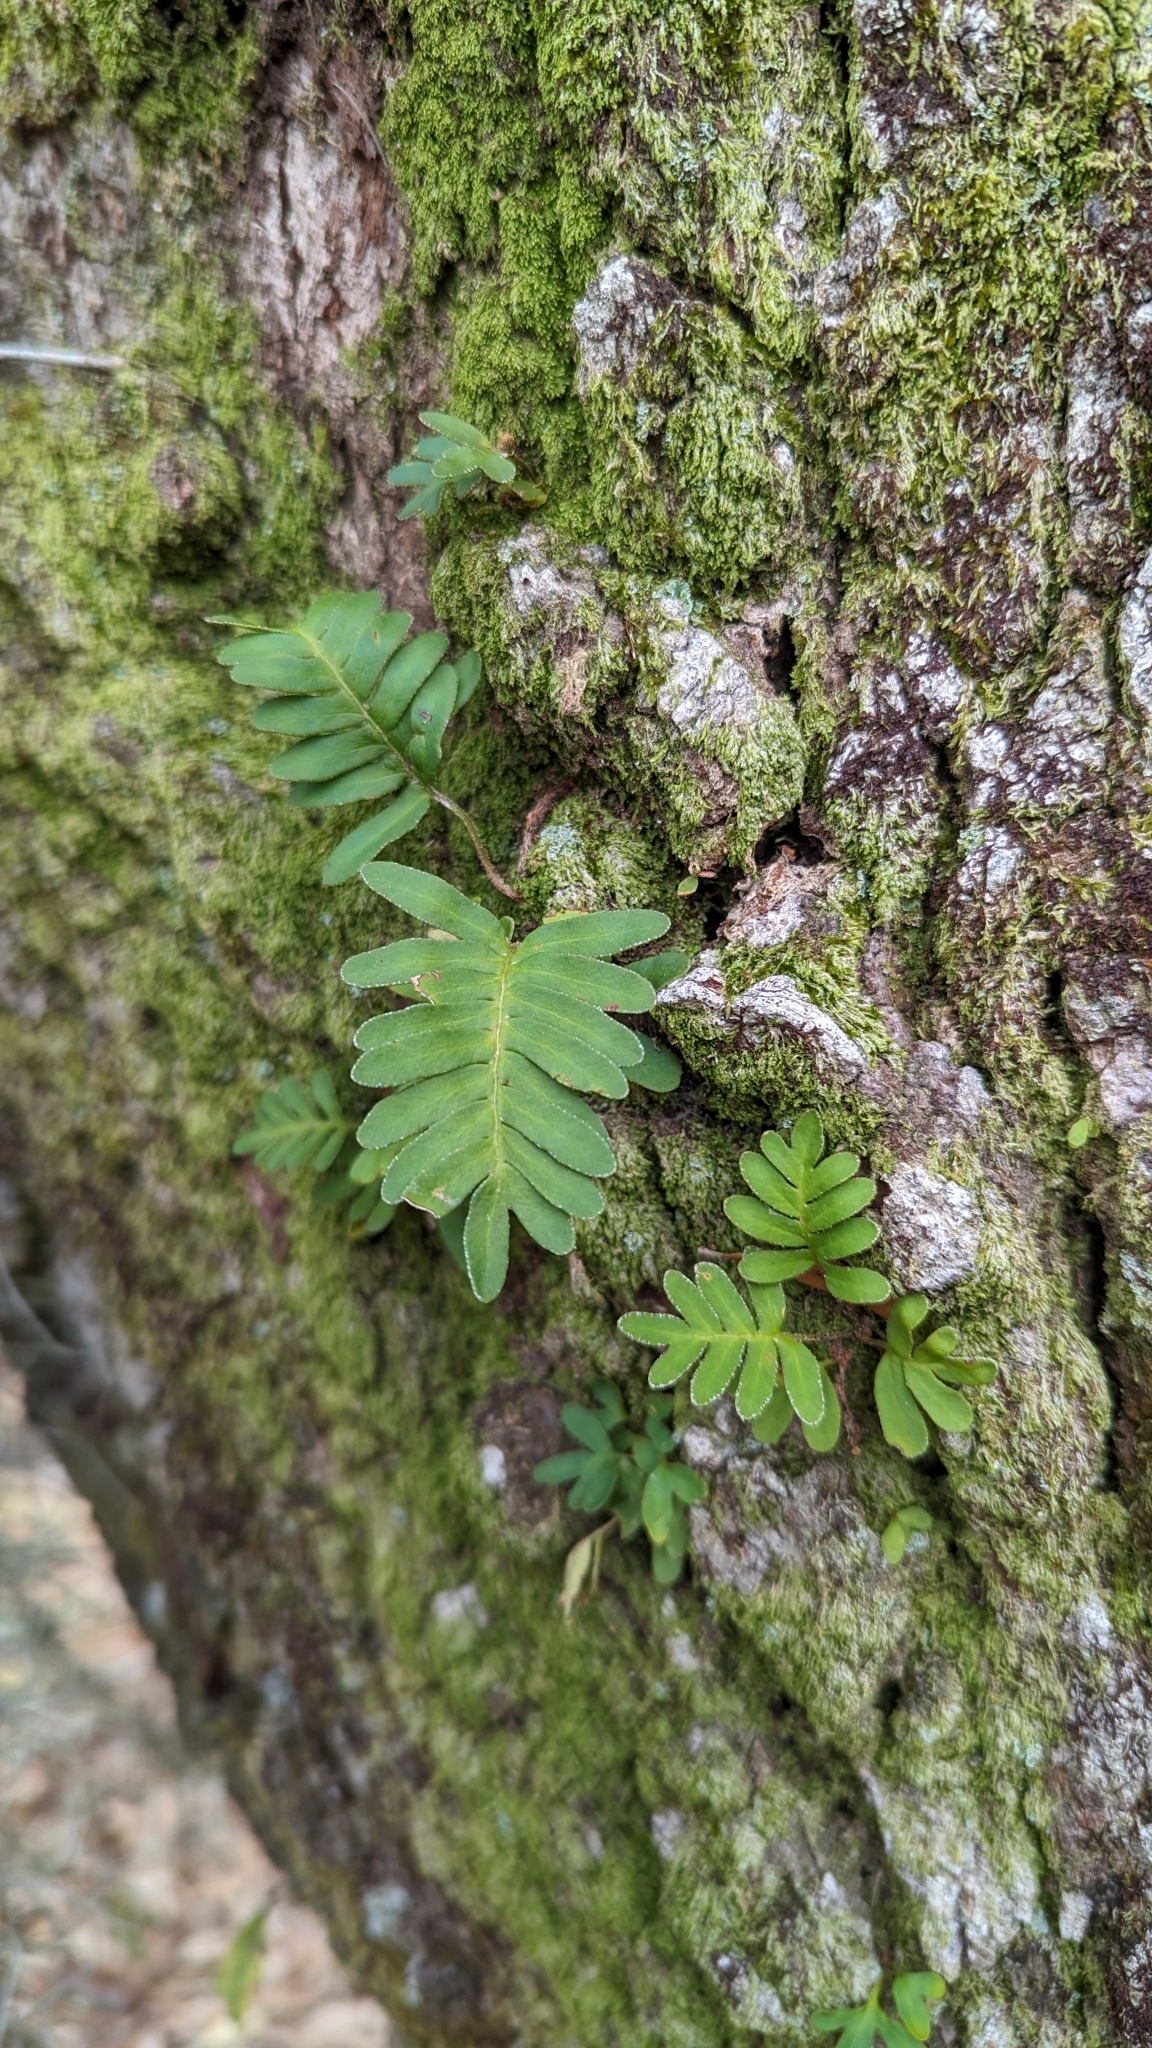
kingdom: Plantae
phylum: Tracheophyta
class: Polypodiopsida
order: Polypodiales
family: Polypodiaceae
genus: Pleopeltis
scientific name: Pleopeltis michauxiana
